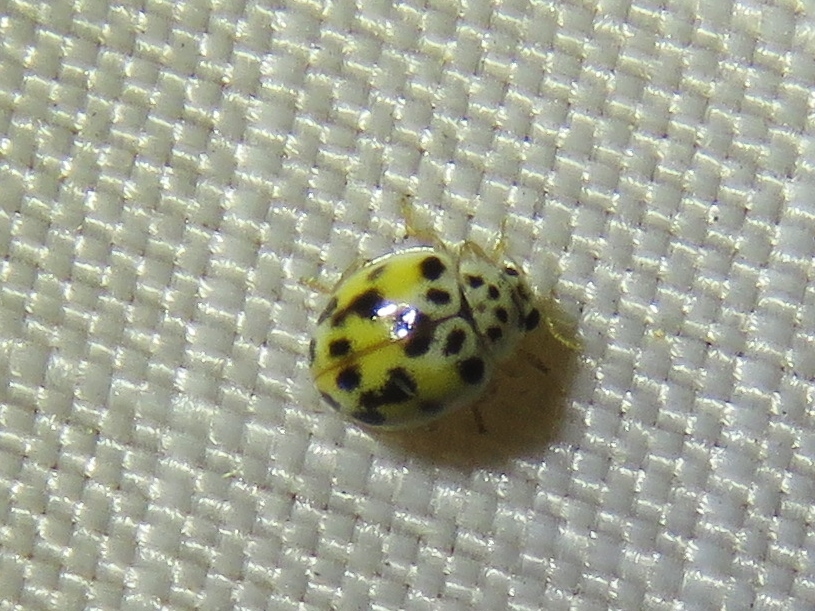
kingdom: Animalia
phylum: Arthropoda
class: Insecta
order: Coleoptera
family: Coccinellidae
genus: Psyllobora
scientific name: Psyllobora vigintimaculata
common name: Ladybird beetle
